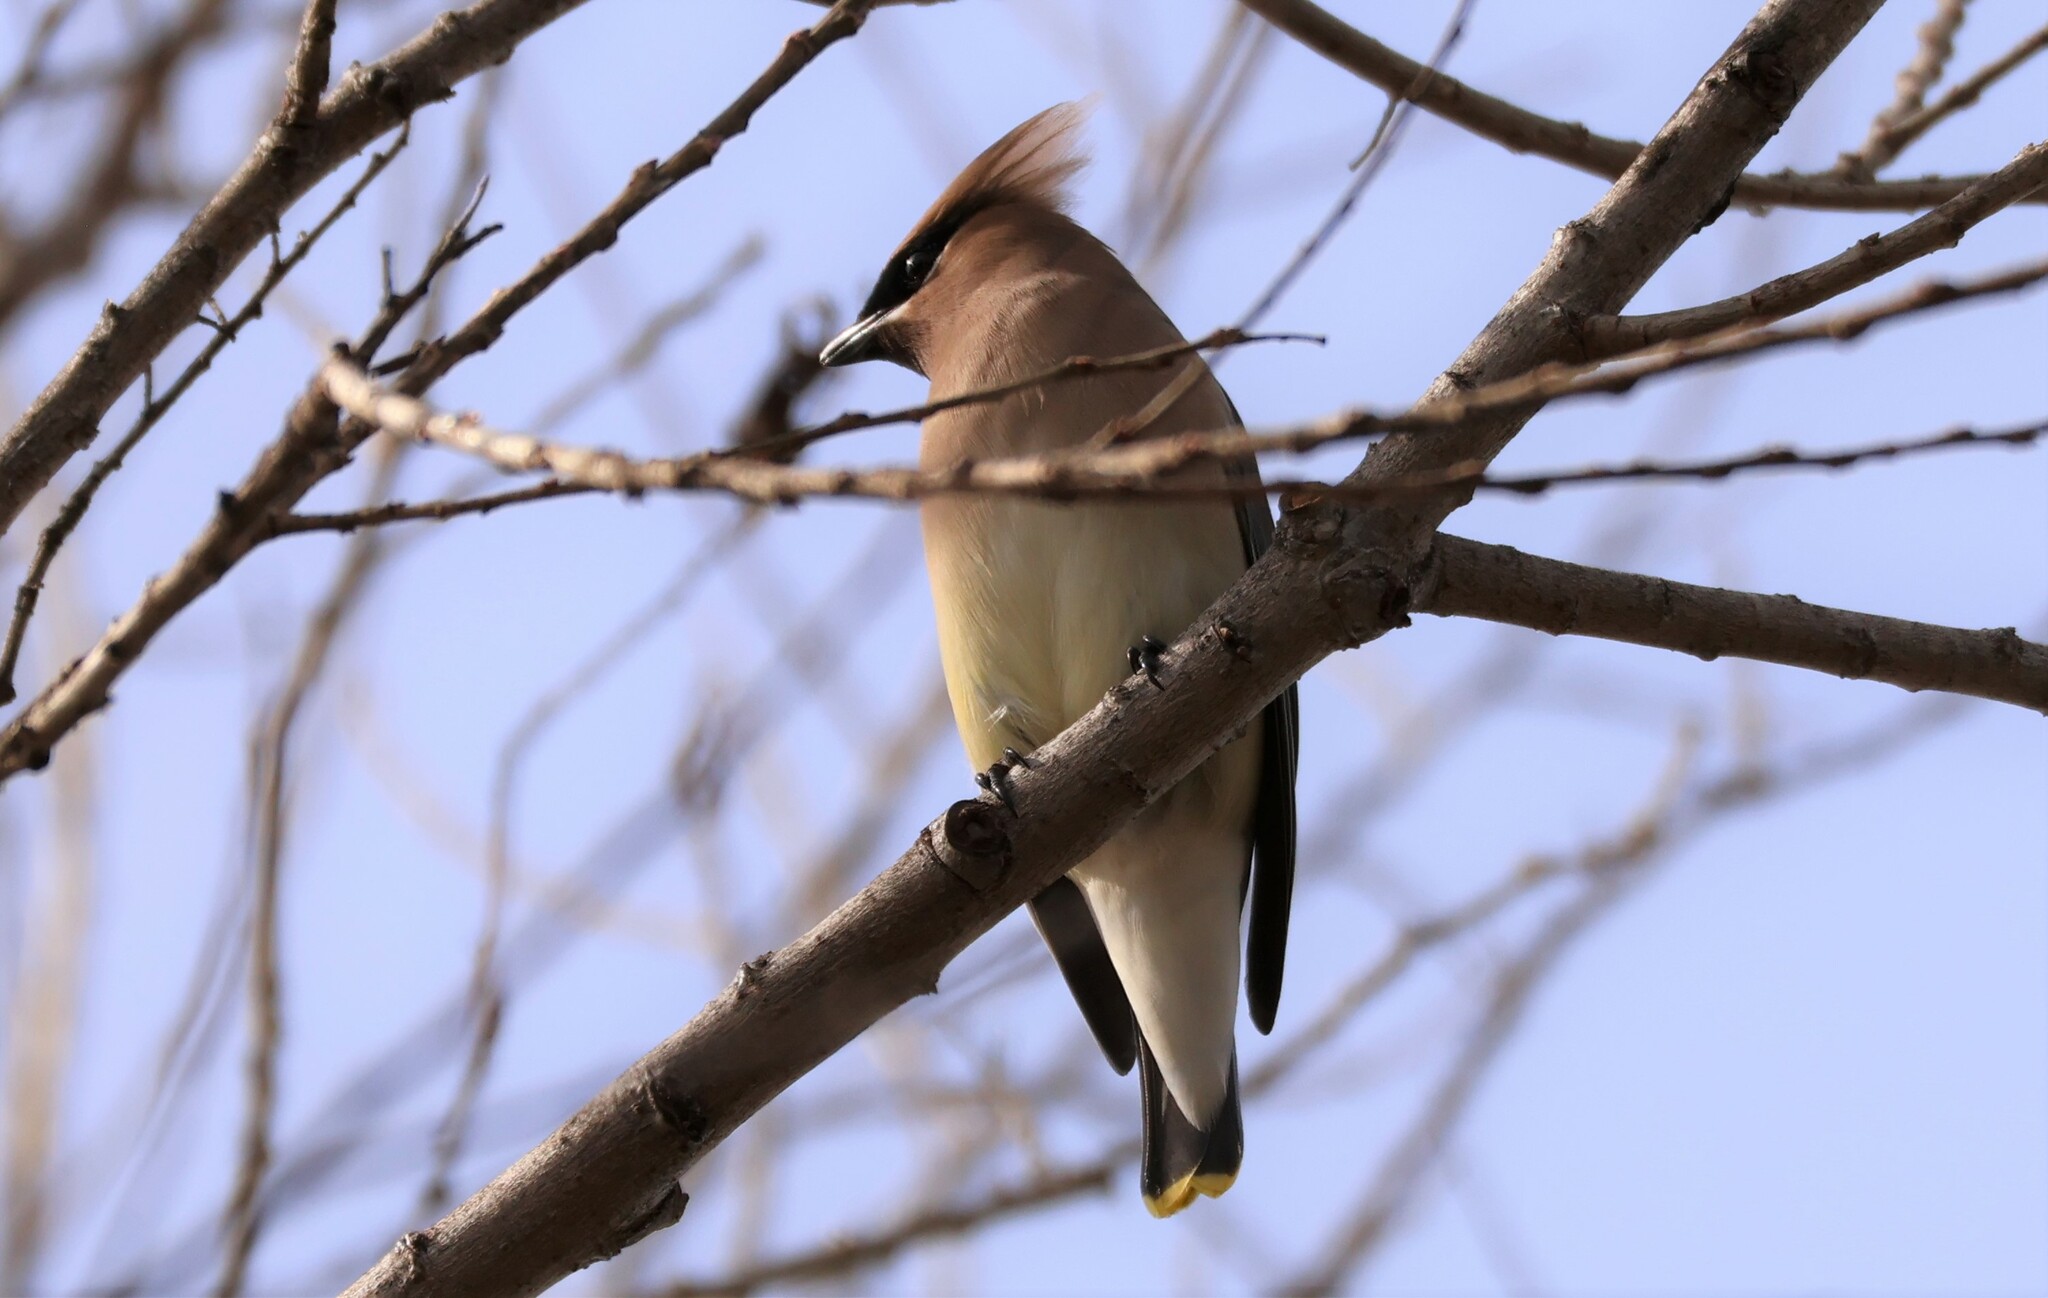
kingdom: Animalia
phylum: Chordata
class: Aves
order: Passeriformes
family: Bombycillidae
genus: Bombycilla
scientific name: Bombycilla cedrorum
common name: Cedar waxwing
